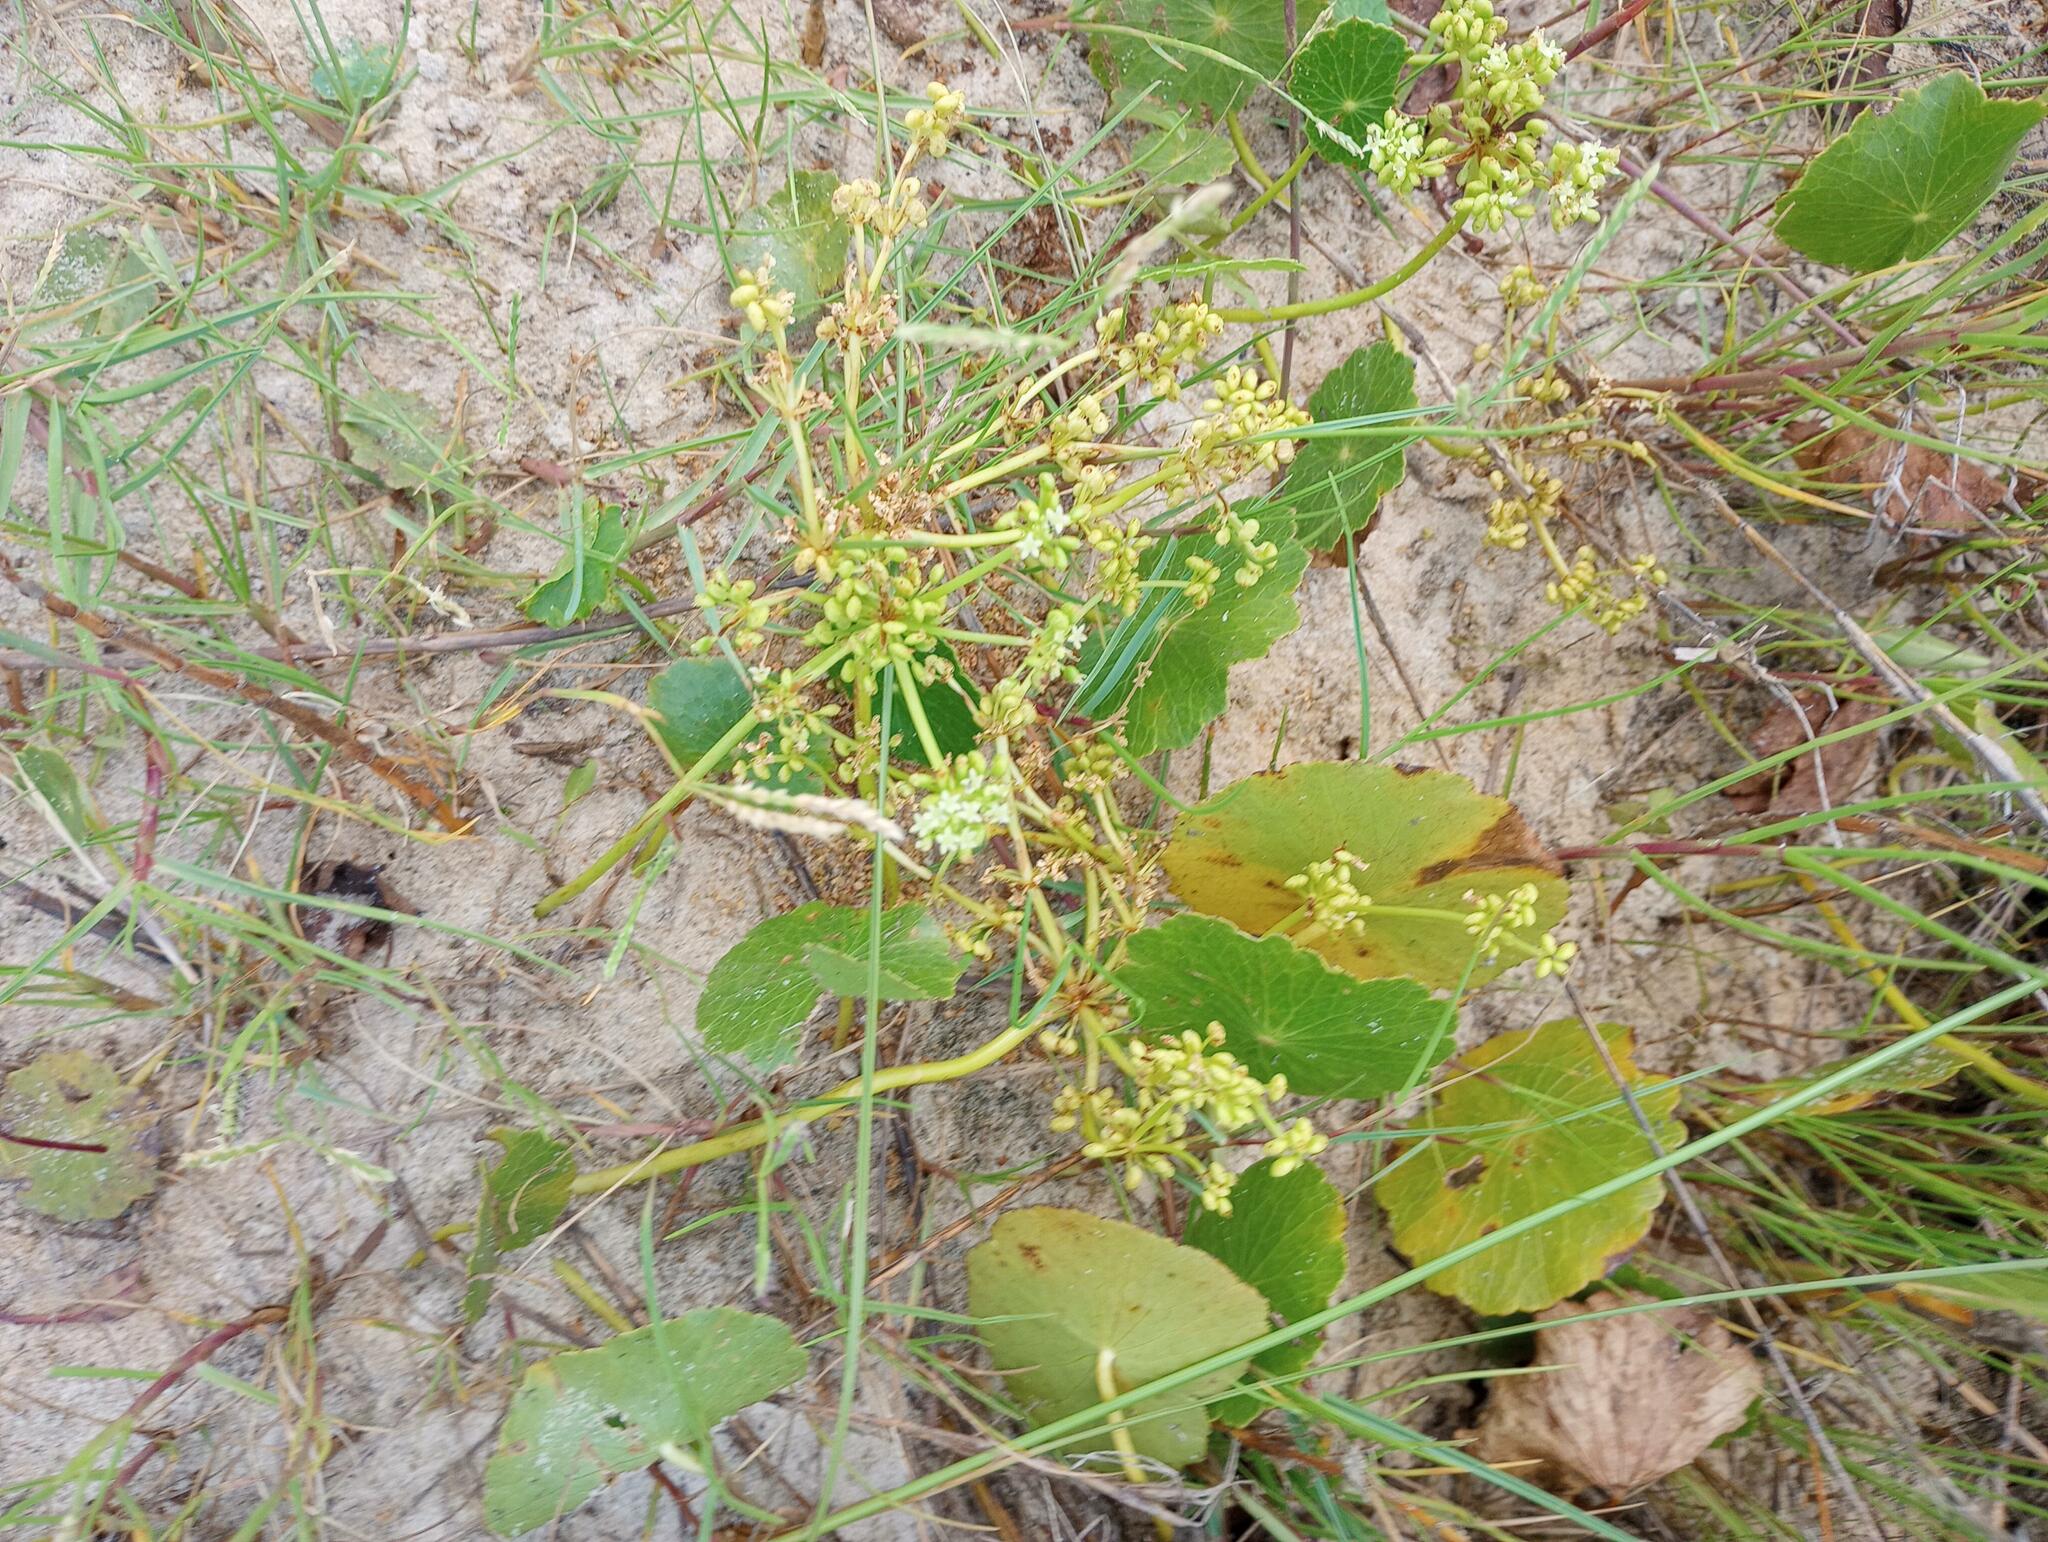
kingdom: Plantae
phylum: Tracheophyta
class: Magnoliopsida
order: Apiales
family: Araliaceae
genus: Hydrocotyle
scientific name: Hydrocotyle bonariensis
